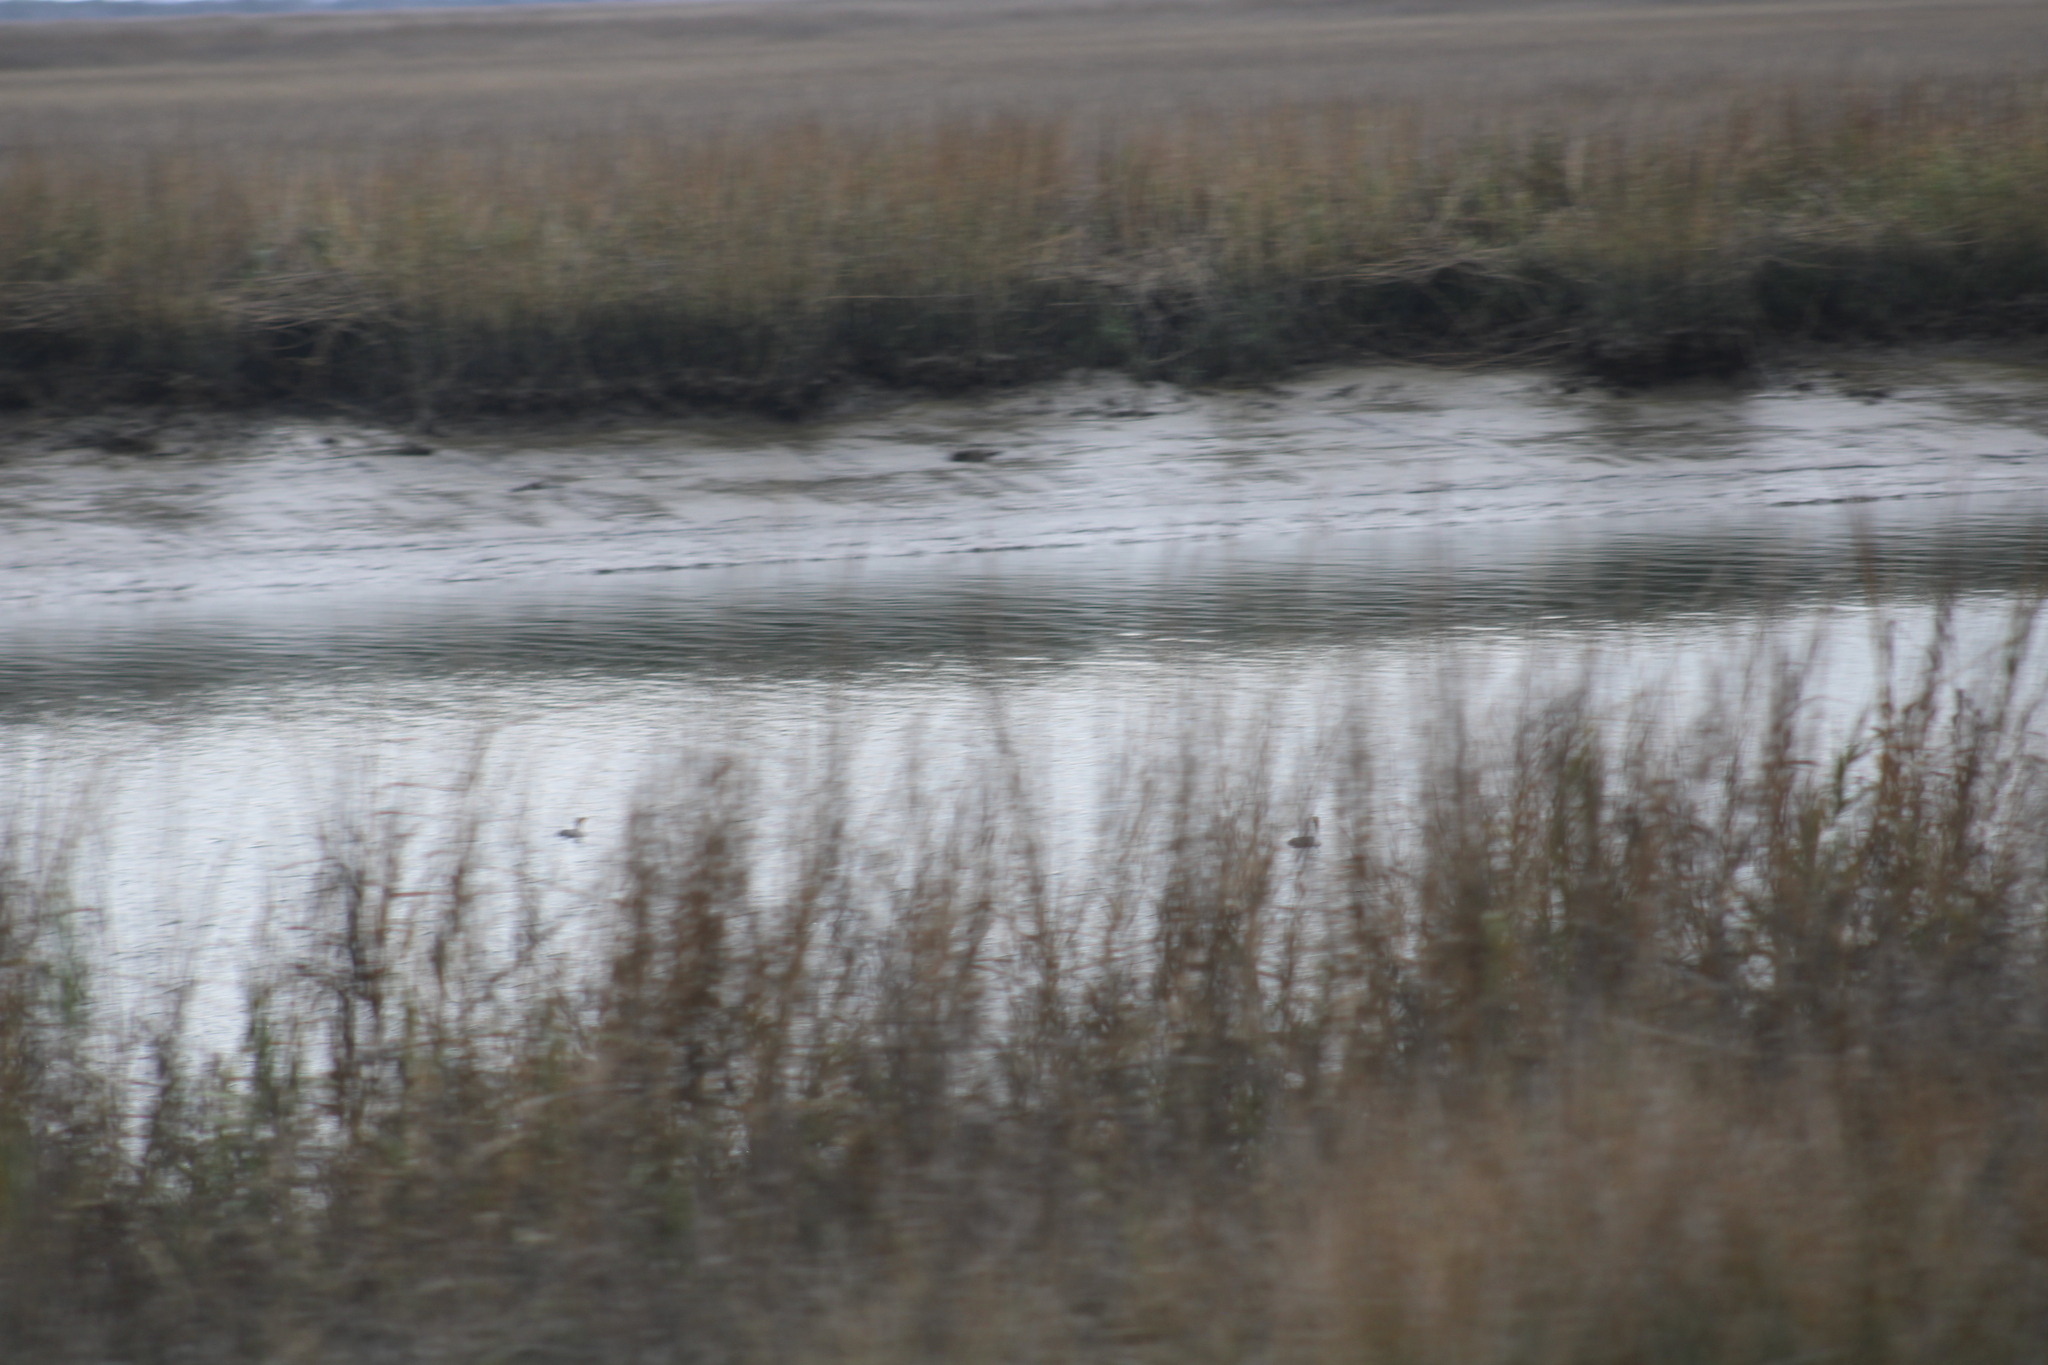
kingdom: Animalia
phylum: Chordata
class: Aves
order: Suliformes
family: Phalacrocoracidae
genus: Phalacrocorax
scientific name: Phalacrocorax auritus
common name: Double-crested cormorant
